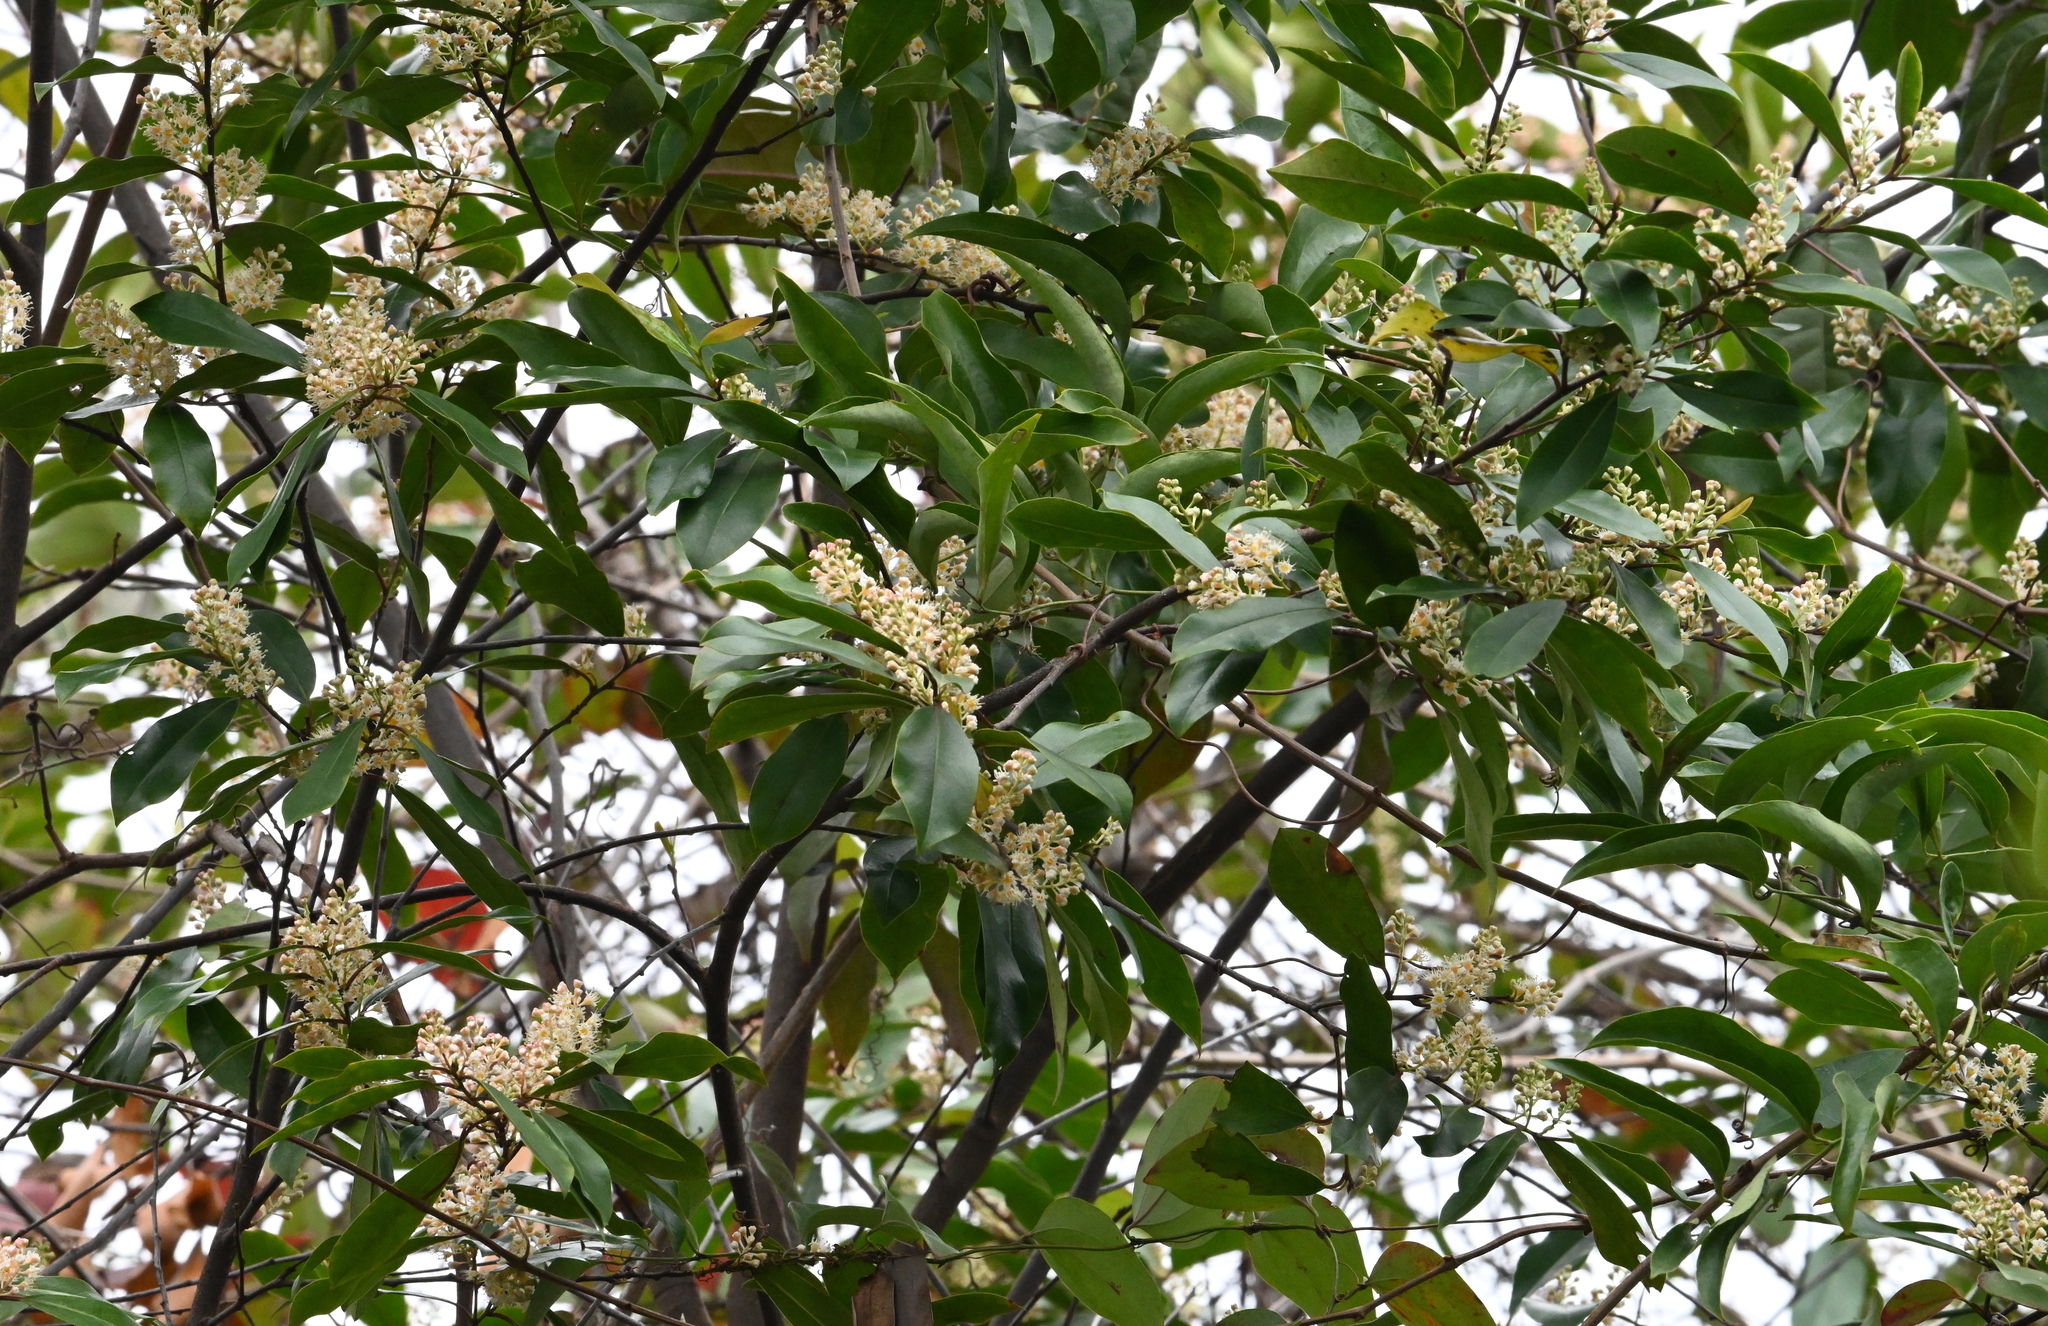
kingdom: Plantae
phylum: Tracheophyta
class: Magnoliopsida
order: Rosales
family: Rosaceae
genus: Prunus
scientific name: Prunus caroliniana
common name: Carolina laurel cherry
